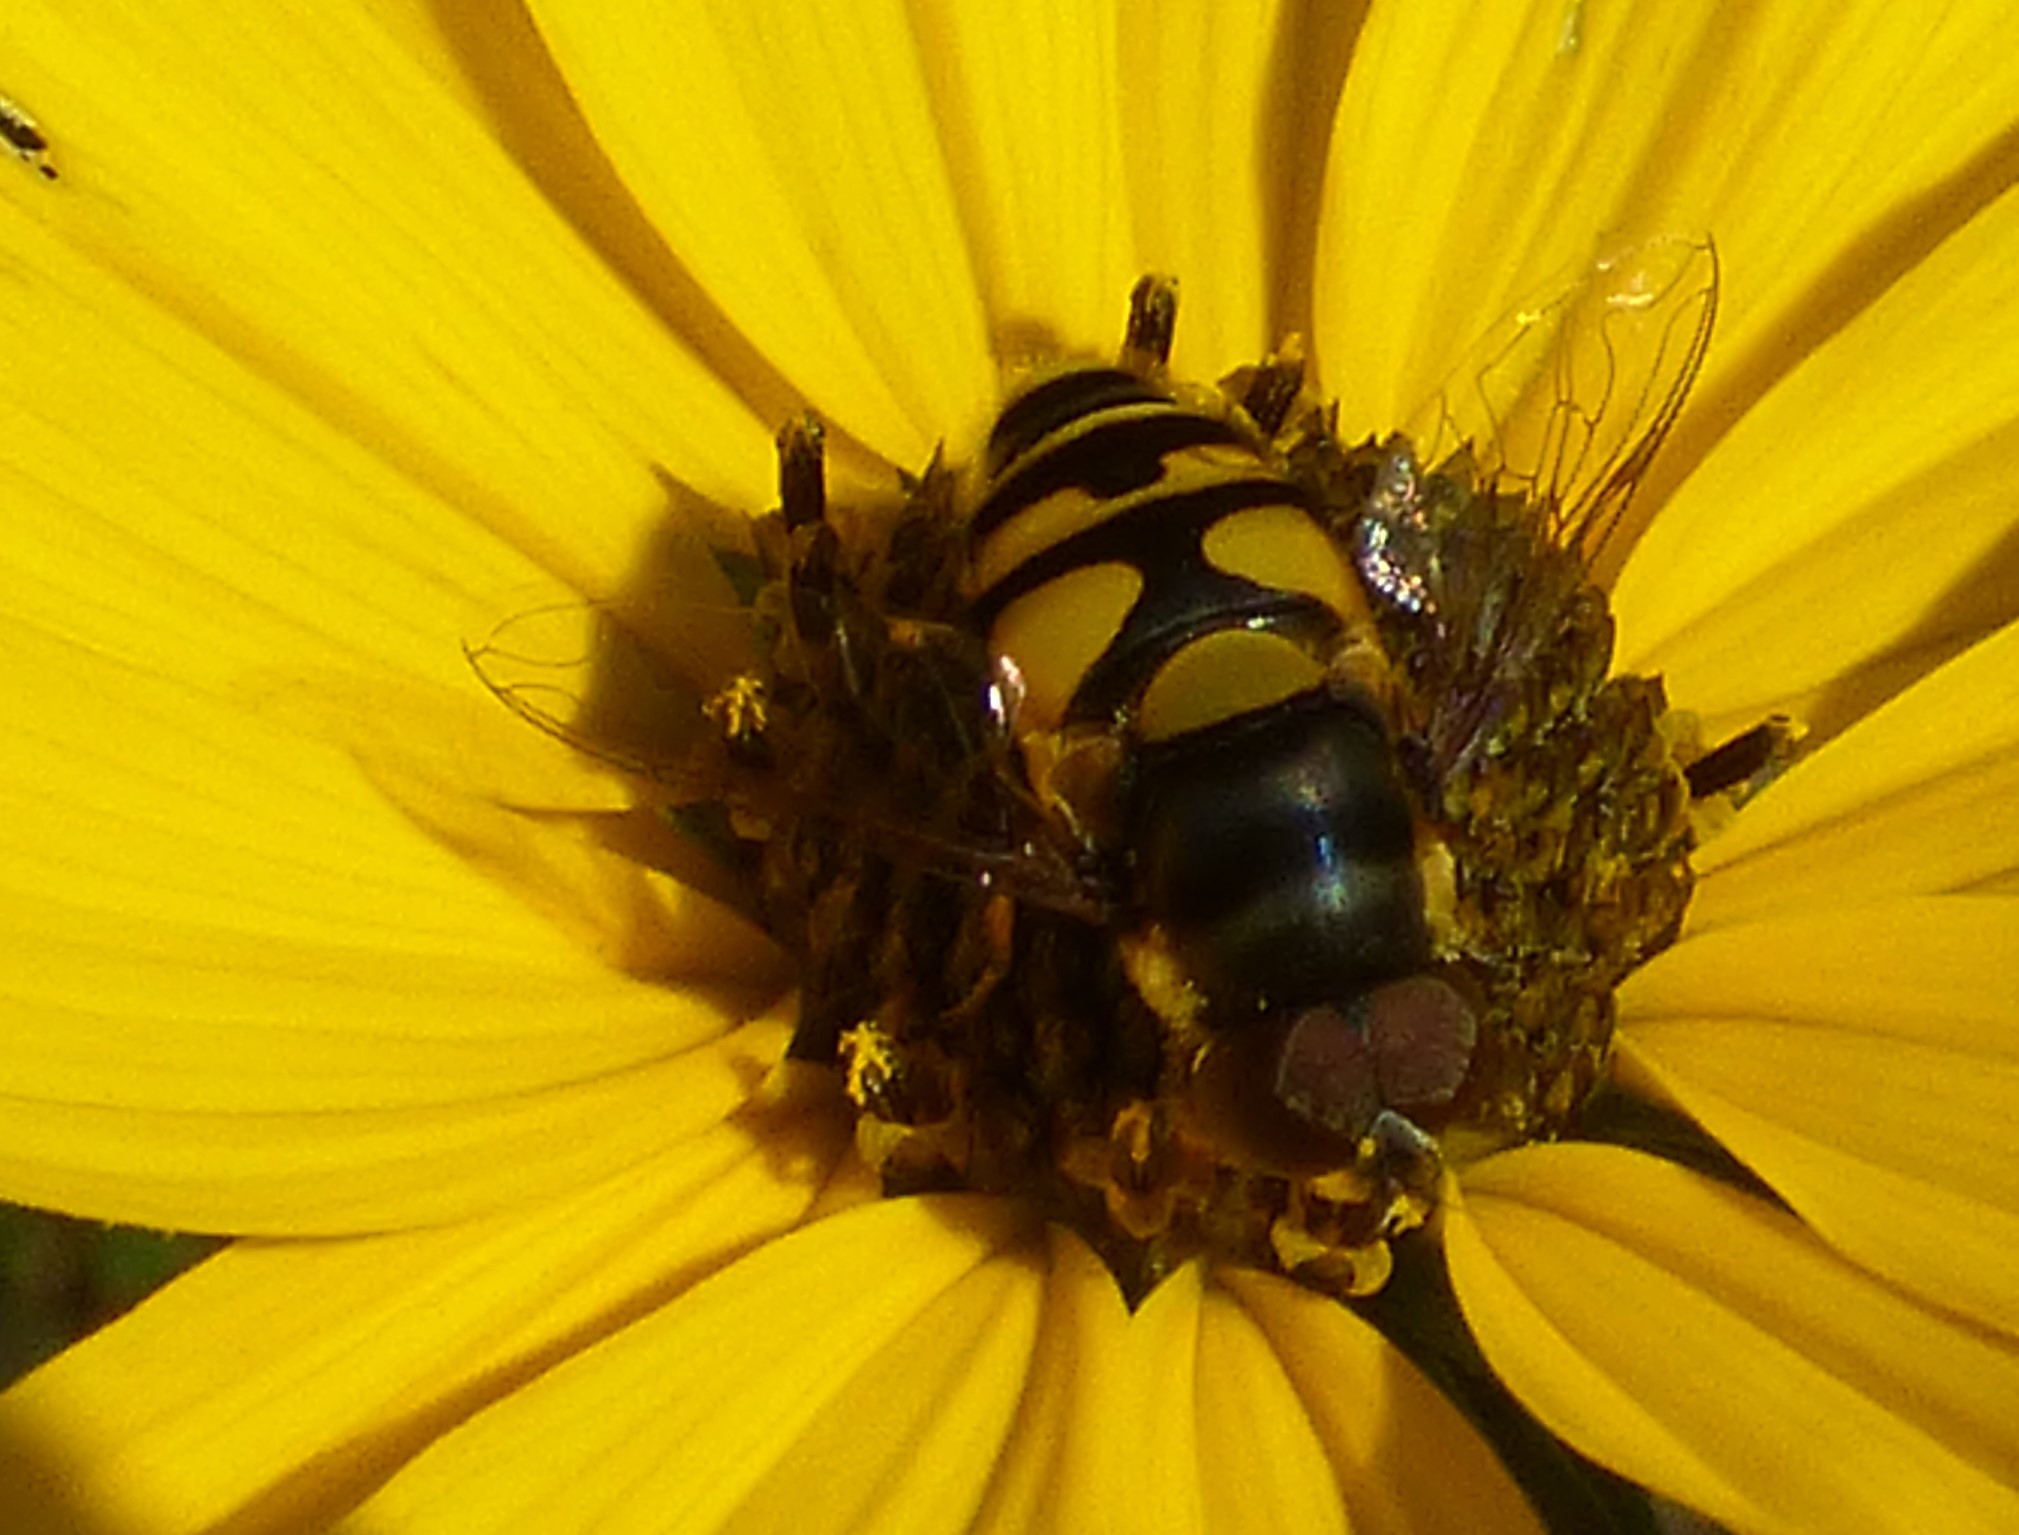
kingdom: Animalia
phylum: Arthropoda
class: Insecta
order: Diptera
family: Syrphidae
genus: Eristalis
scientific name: Eristalis transversa
